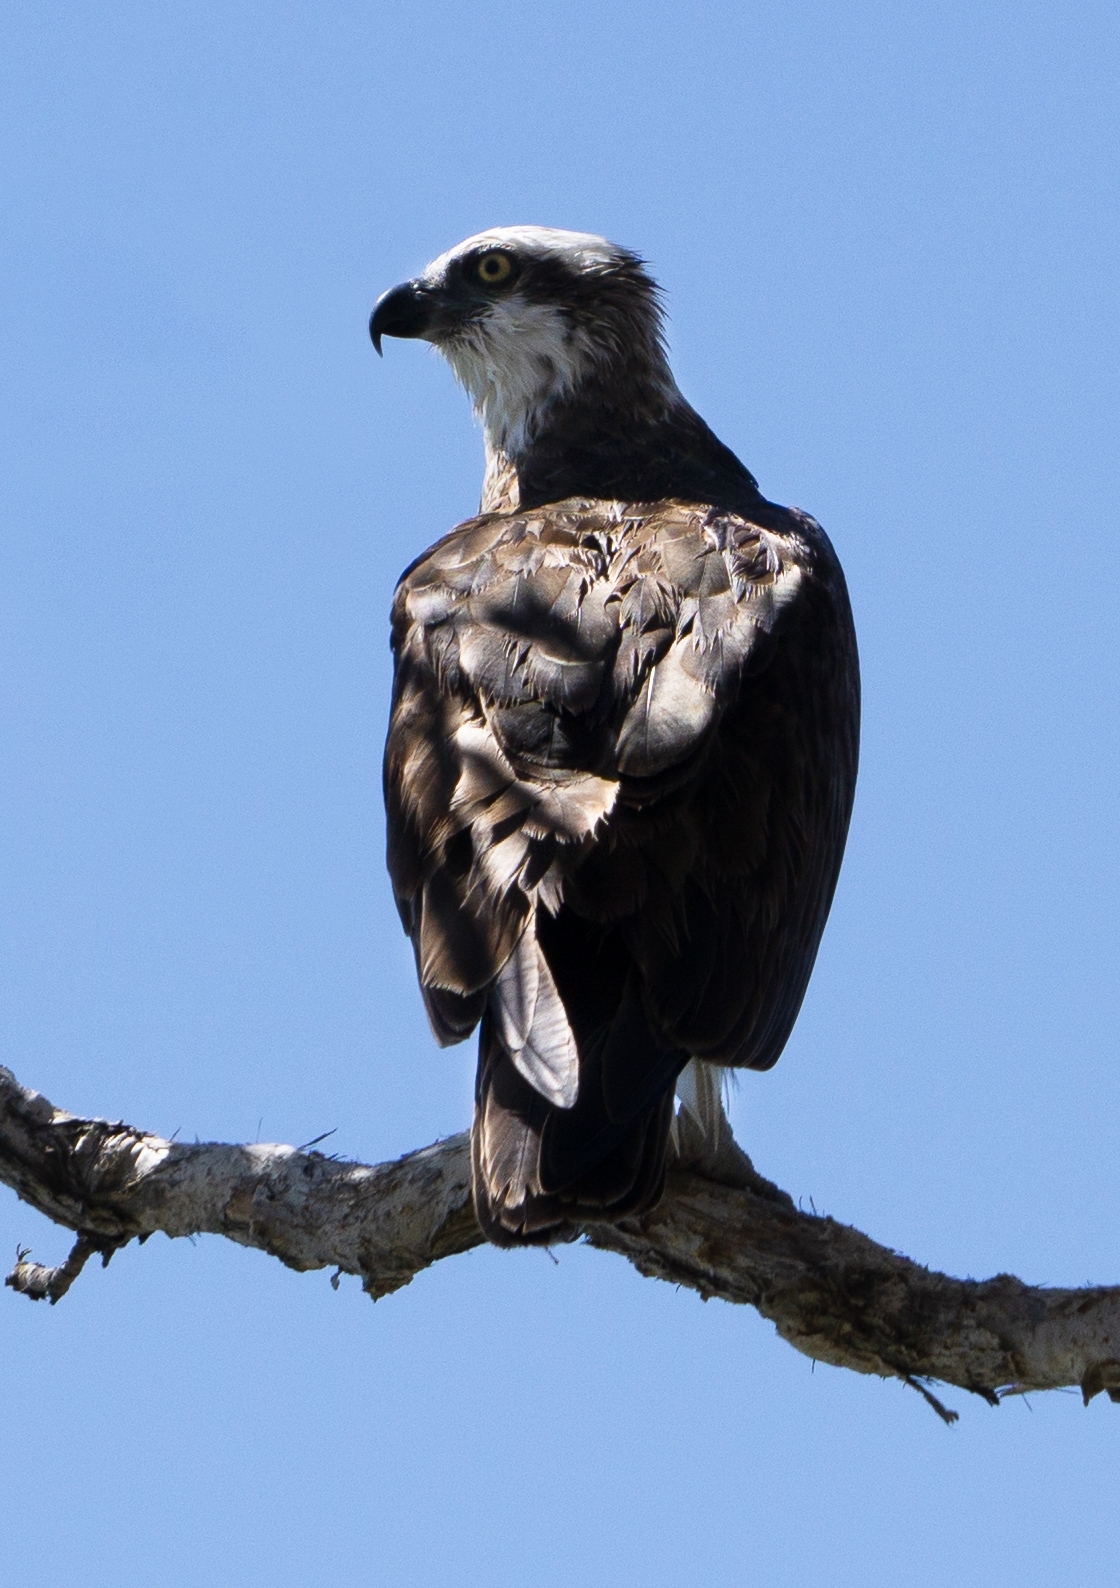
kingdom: Animalia
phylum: Chordata
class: Aves
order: Accipitriformes
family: Pandionidae
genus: Pandion
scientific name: Pandion cristatus
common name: Eastern osprey
